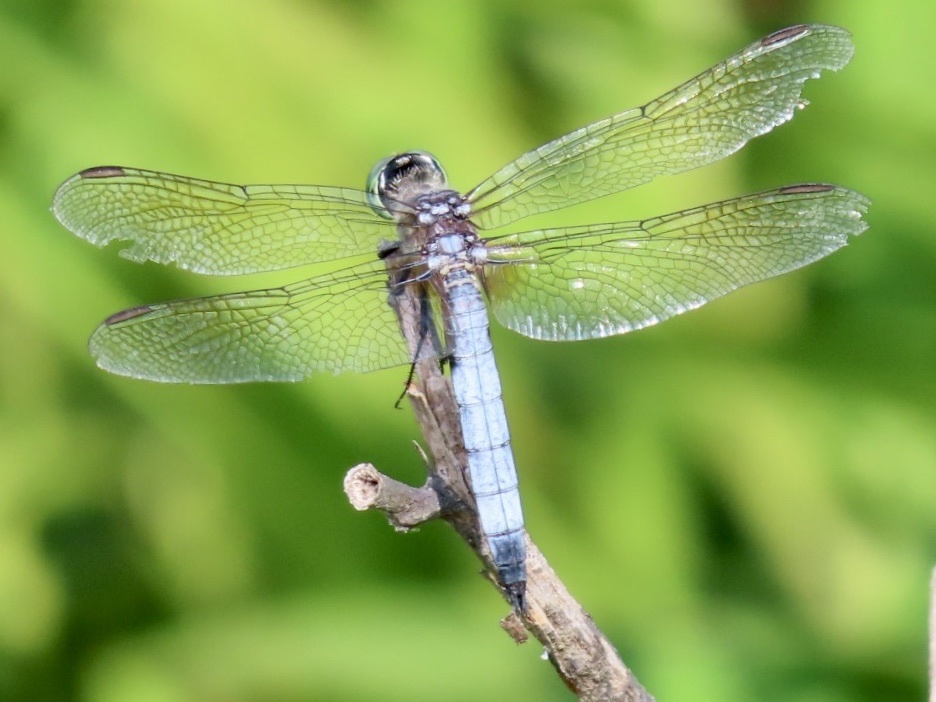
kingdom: Animalia
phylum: Arthropoda
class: Insecta
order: Odonata
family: Libellulidae
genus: Pachydiplax
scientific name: Pachydiplax longipennis
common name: Blue dasher
